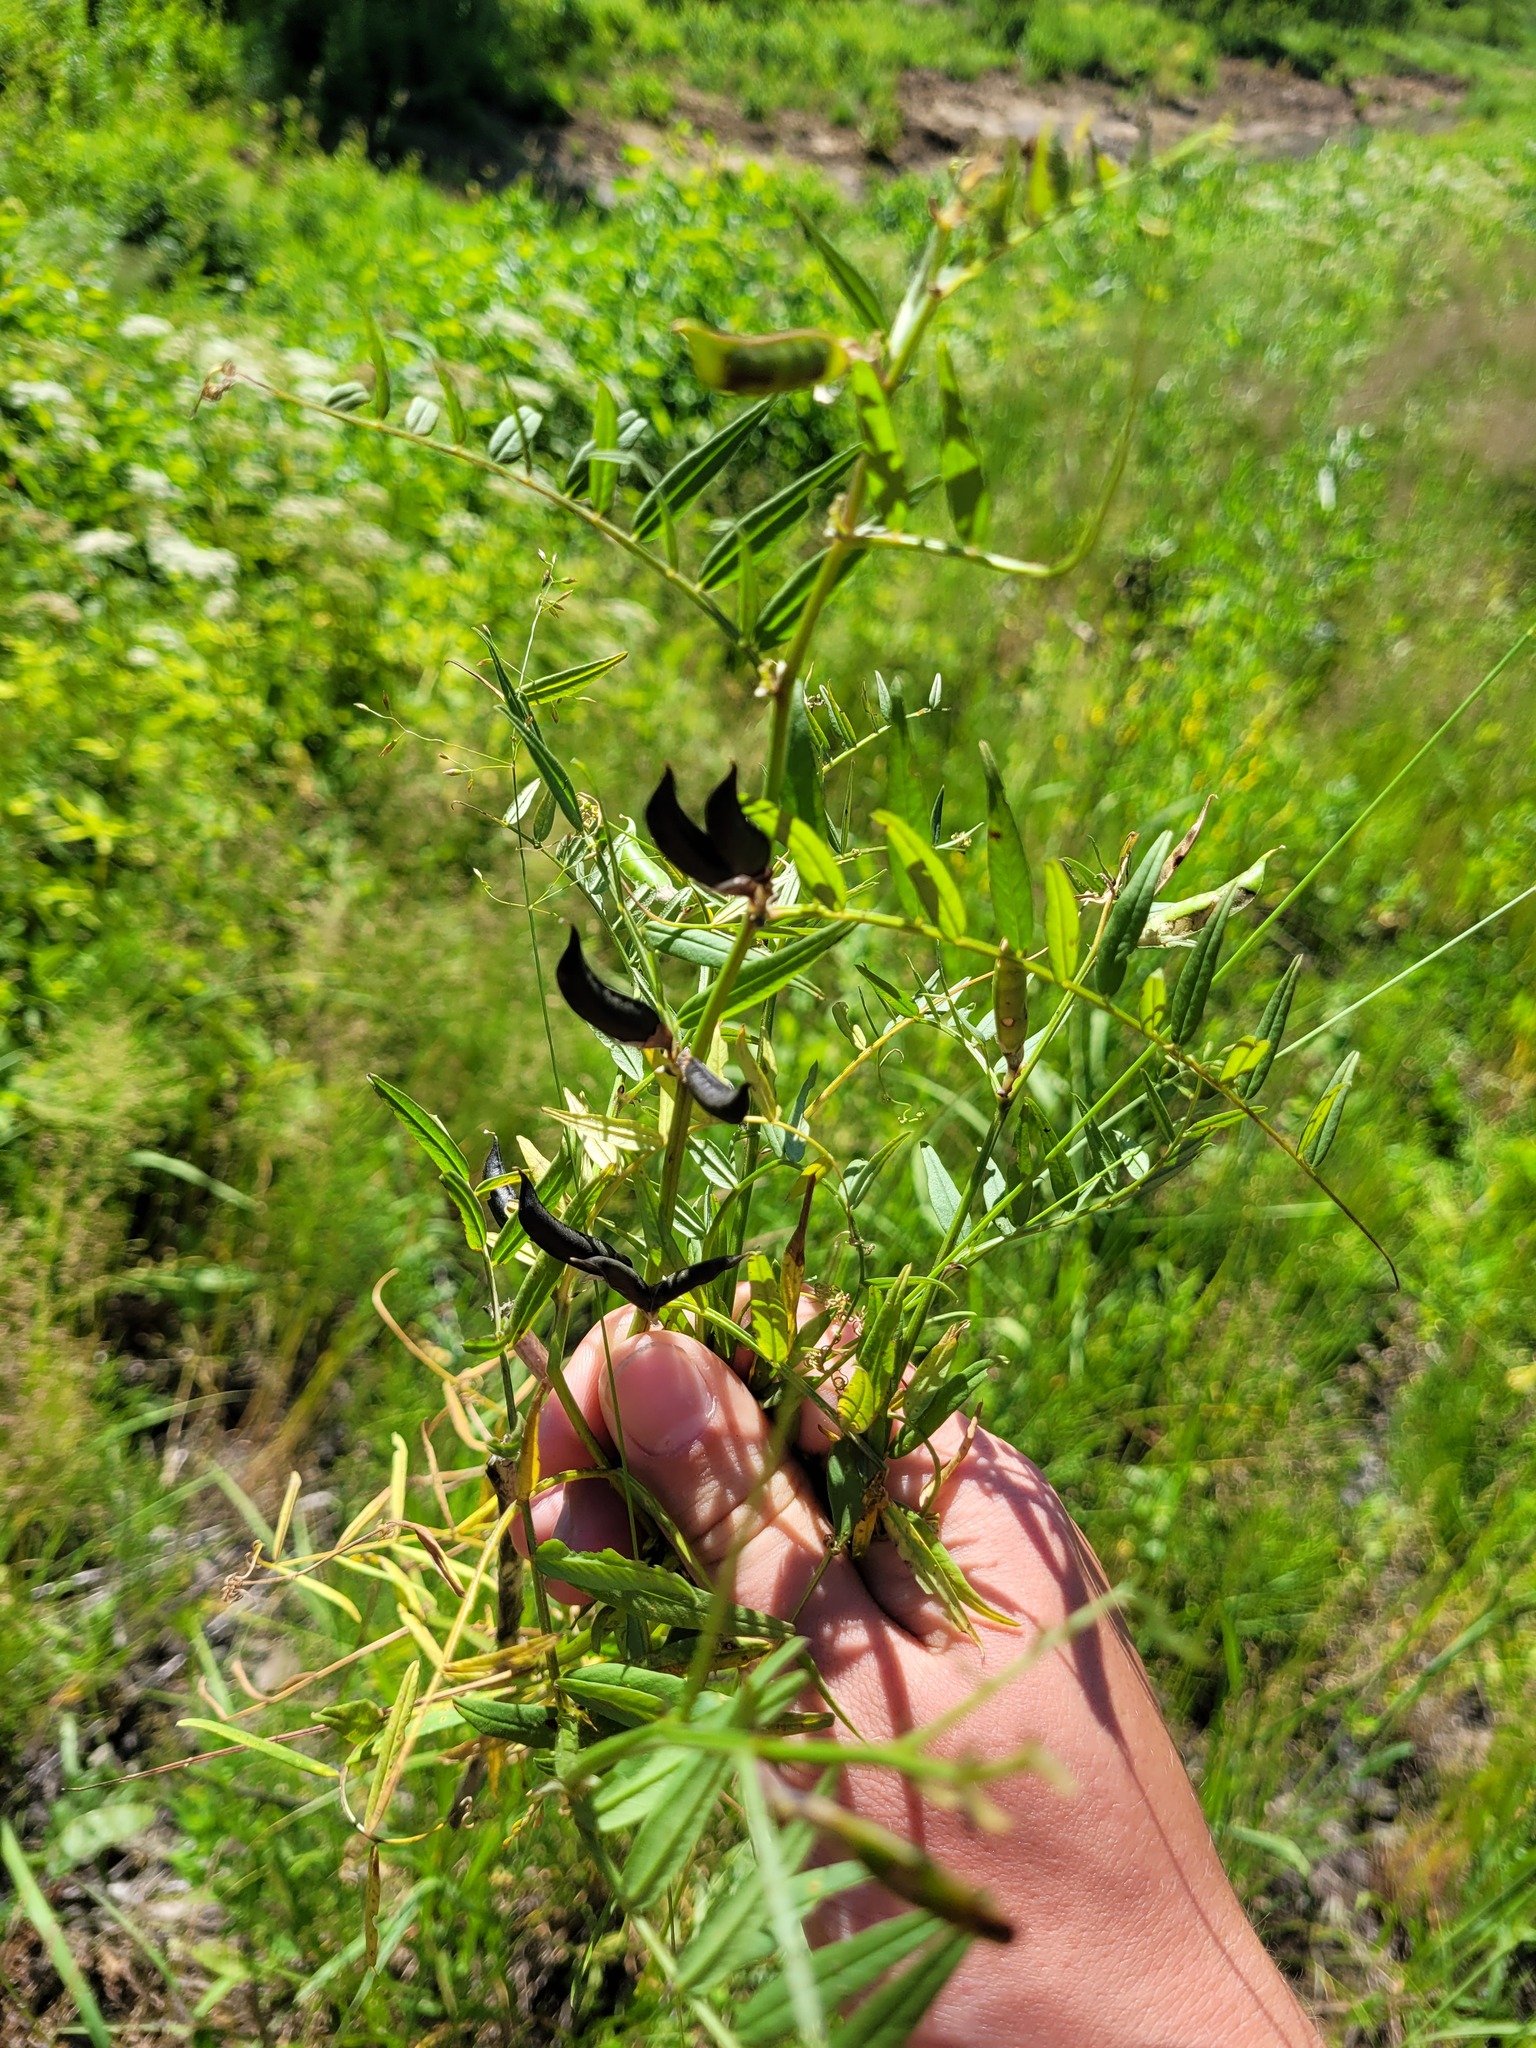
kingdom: Plantae
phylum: Tracheophyta
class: Magnoliopsida
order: Fabales
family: Fabaceae
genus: Vicia
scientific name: Vicia sepium
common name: Bush vetch
